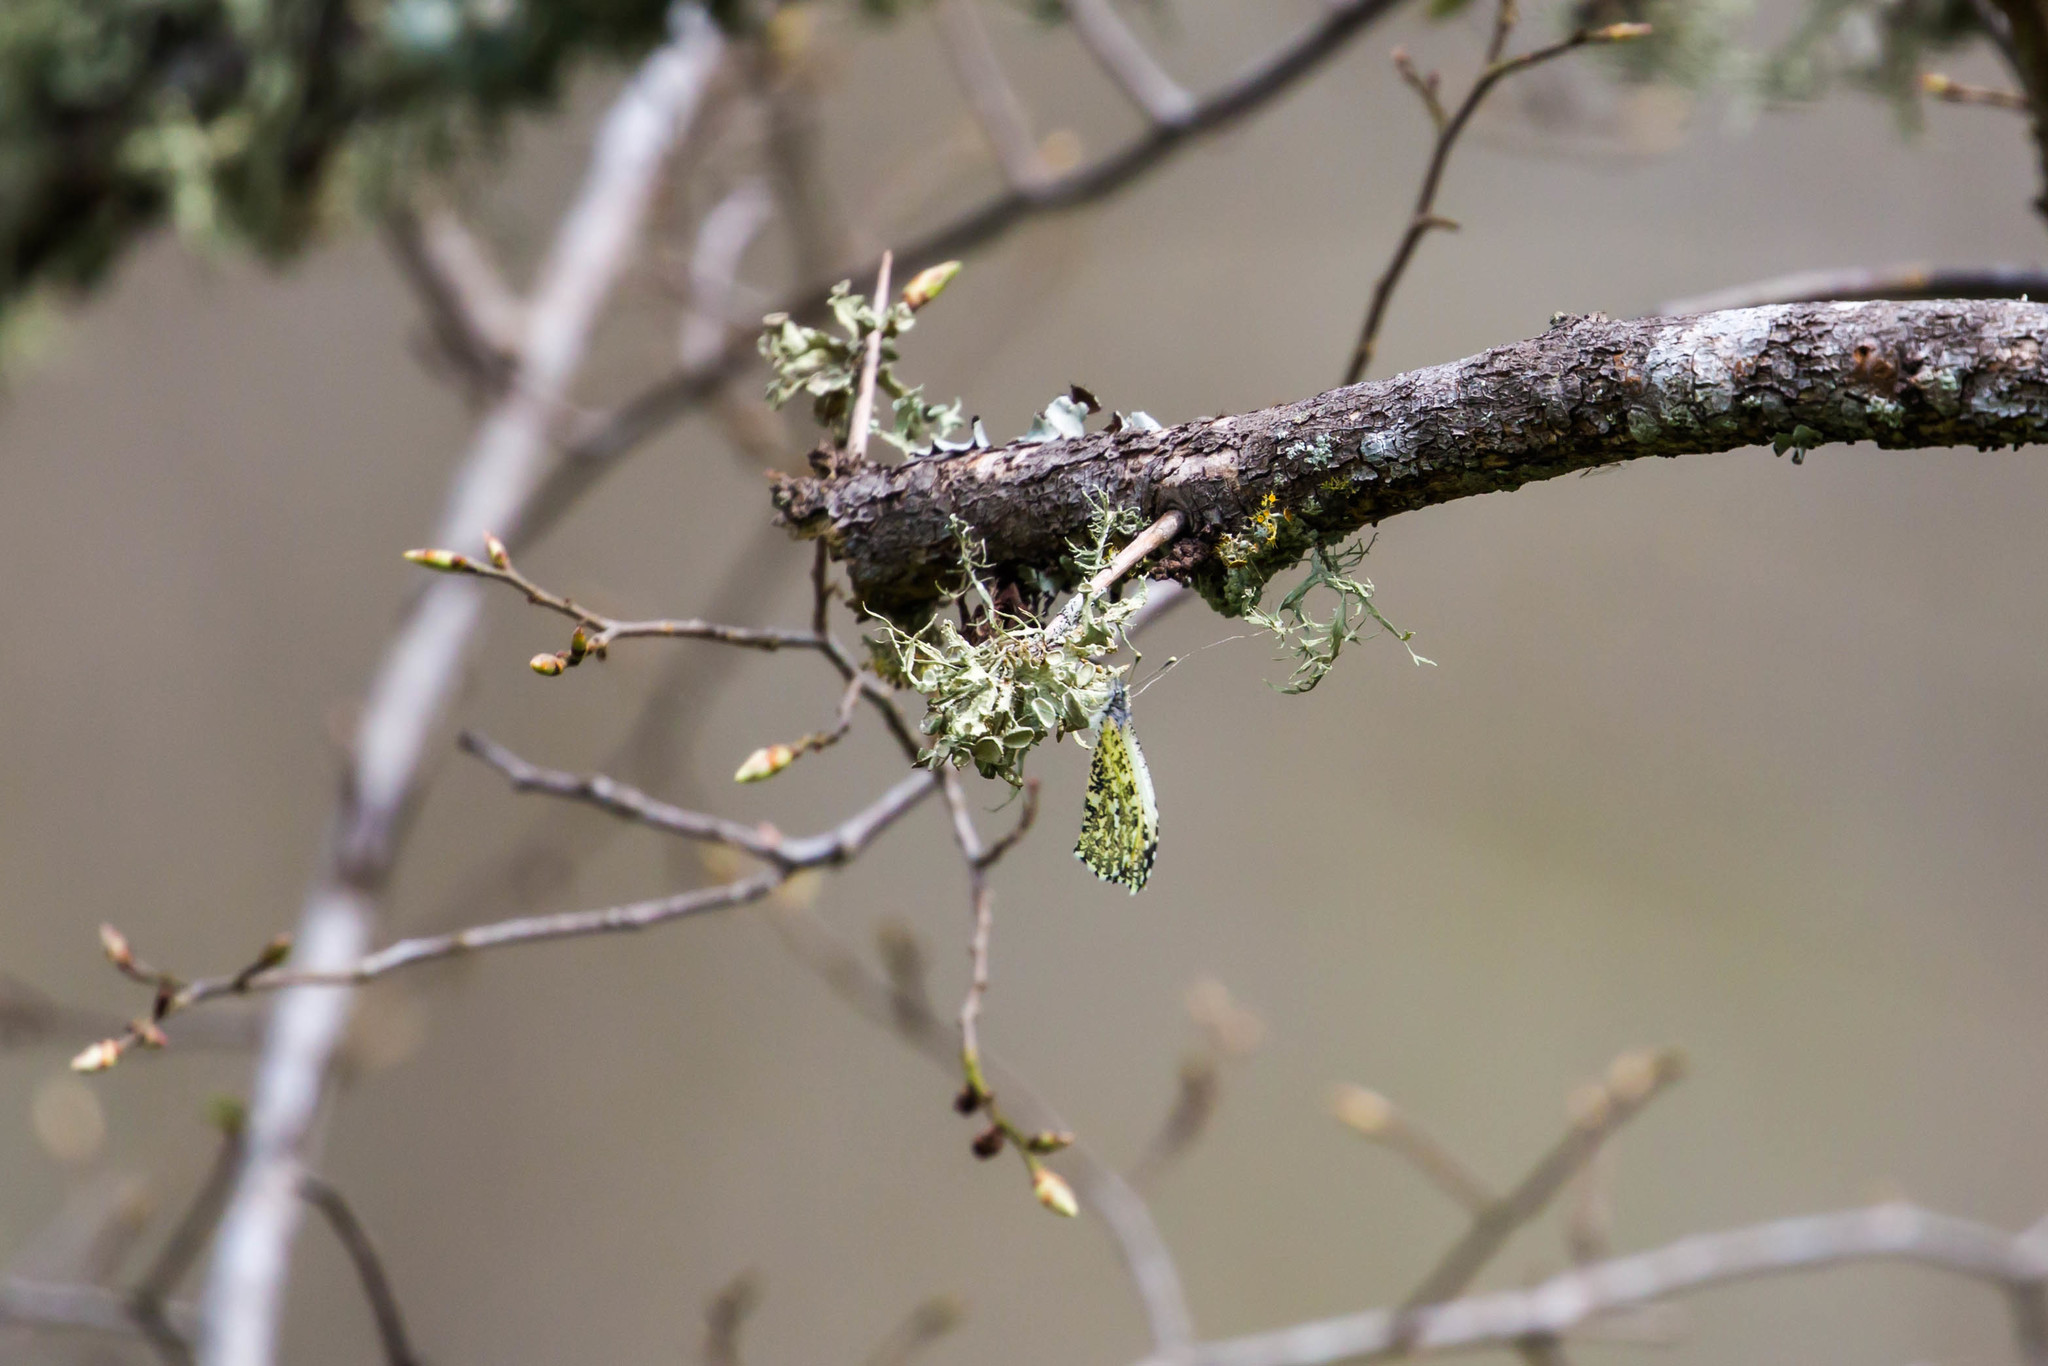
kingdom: Animalia
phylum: Arthropoda
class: Insecta
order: Lepidoptera
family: Pieridae
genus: Anthocharis
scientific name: Anthocharis midea
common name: Falcate orangetip
